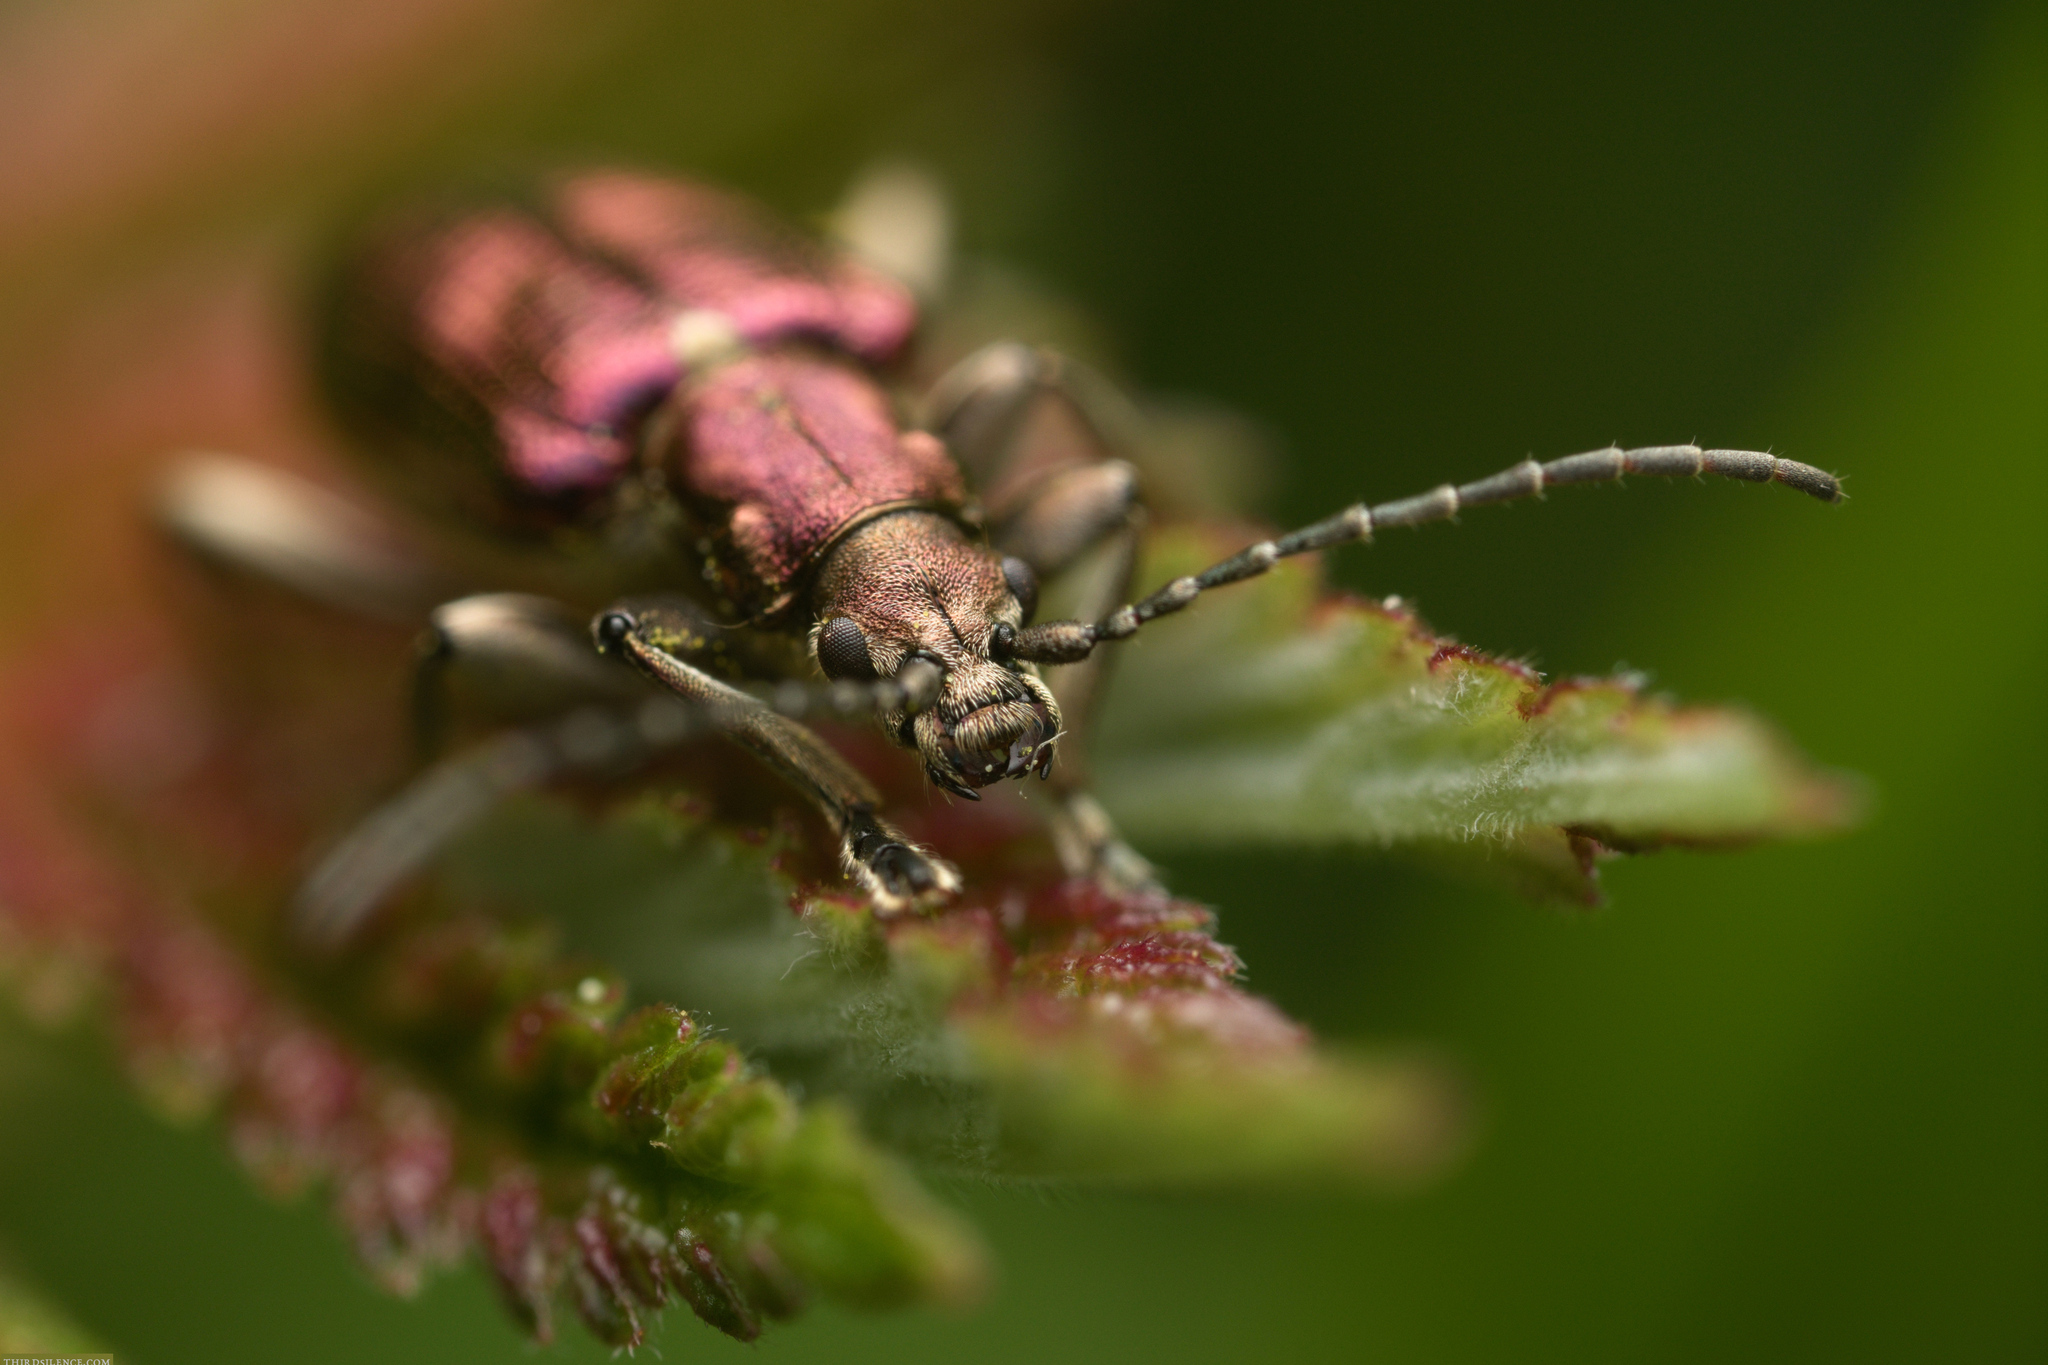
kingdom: Animalia
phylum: Arthropoda
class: Insecta
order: Coleoptera
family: Chrysomelidae
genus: Plateumaris
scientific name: Plateumaris sericea
